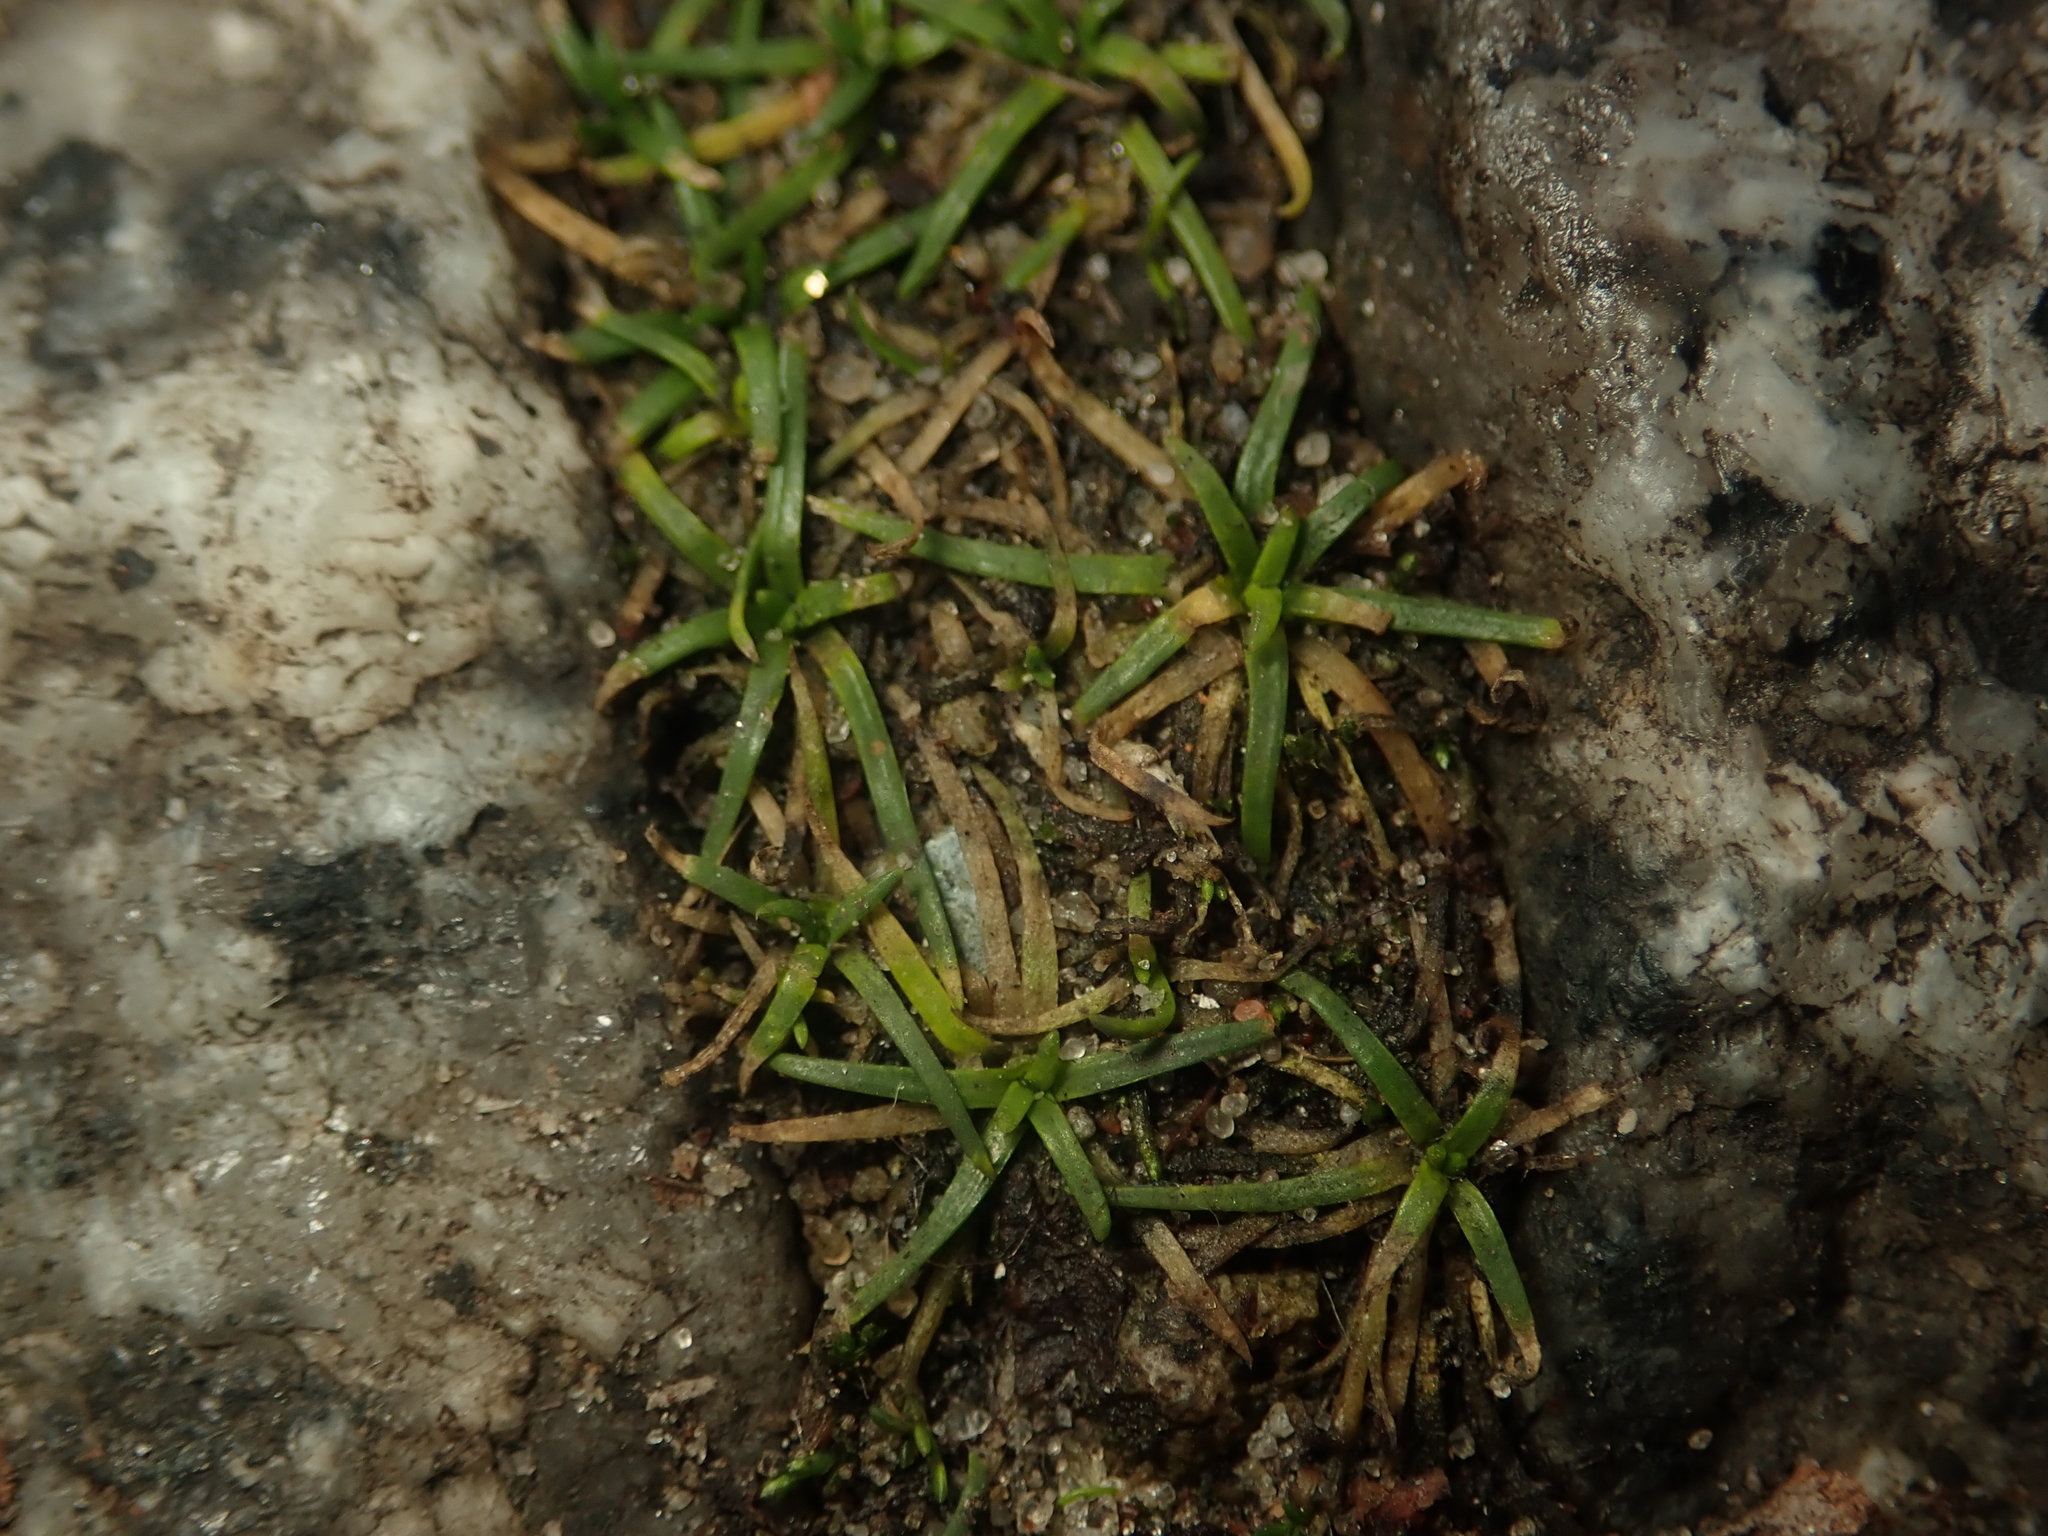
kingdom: Plantae
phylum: Tracheophyta
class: Magnoliopsida
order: Caryophyllales
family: Caryophyllaceae
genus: Sagina
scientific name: Sagina procumbens
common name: Procumbent pearlwort
